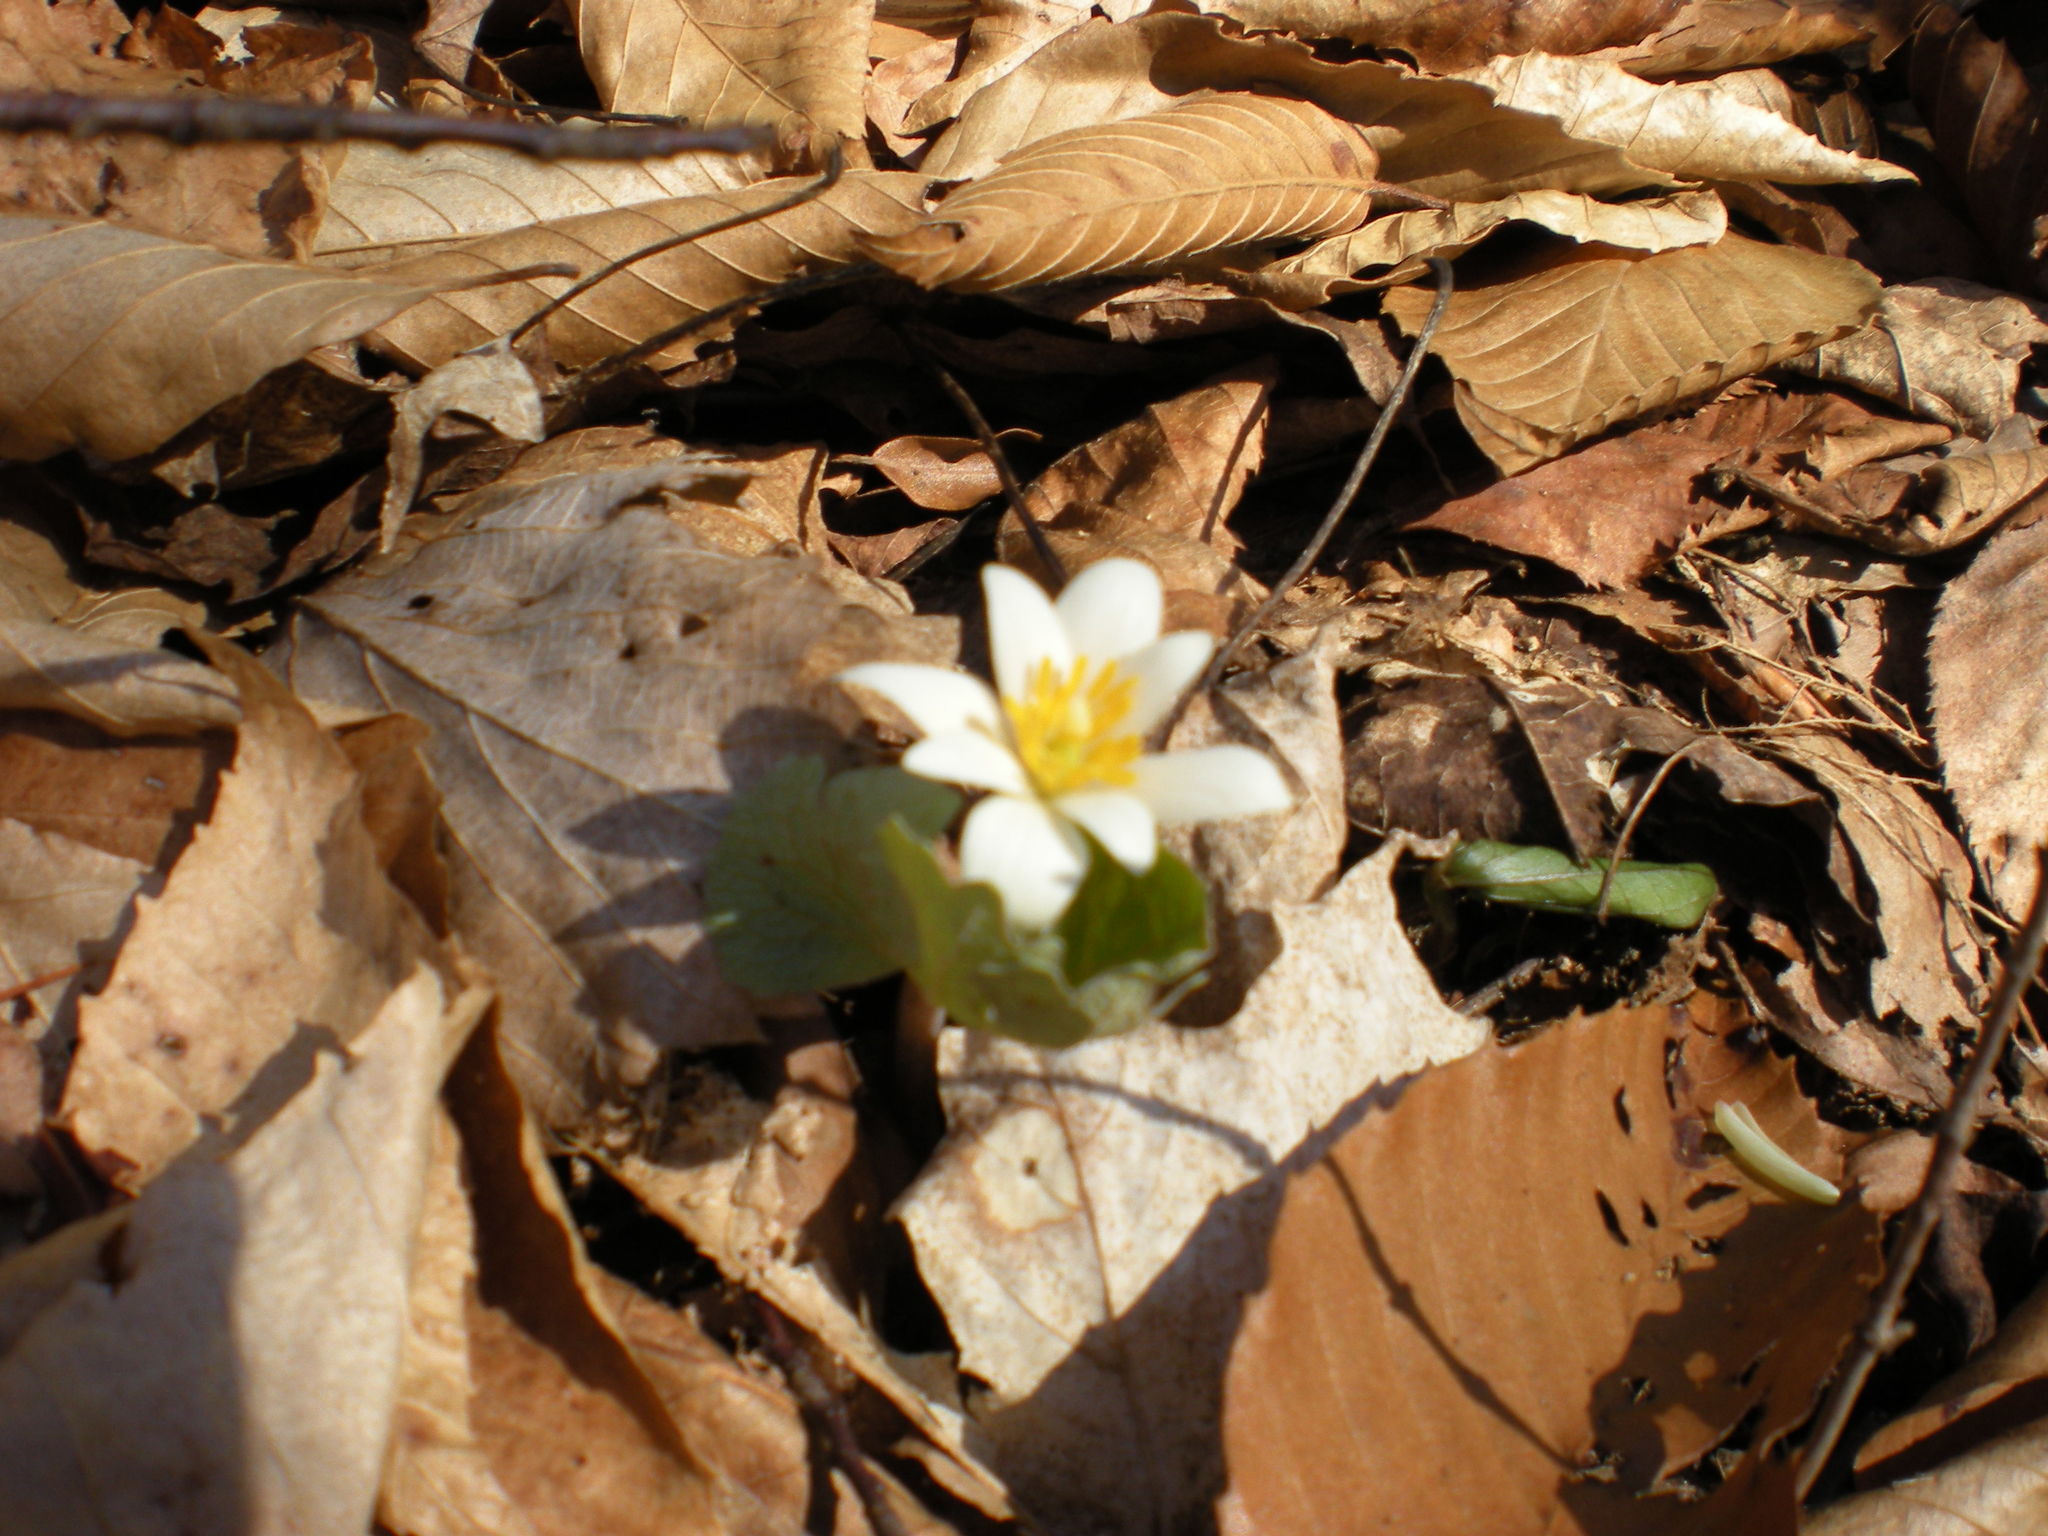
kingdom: Plantae
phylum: Tracheophyta
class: Magnoliopsida
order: Ranunculales
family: Papaveraceae
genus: Sanguinaria
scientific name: Sanguinaria canadensis
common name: Bloodroot
